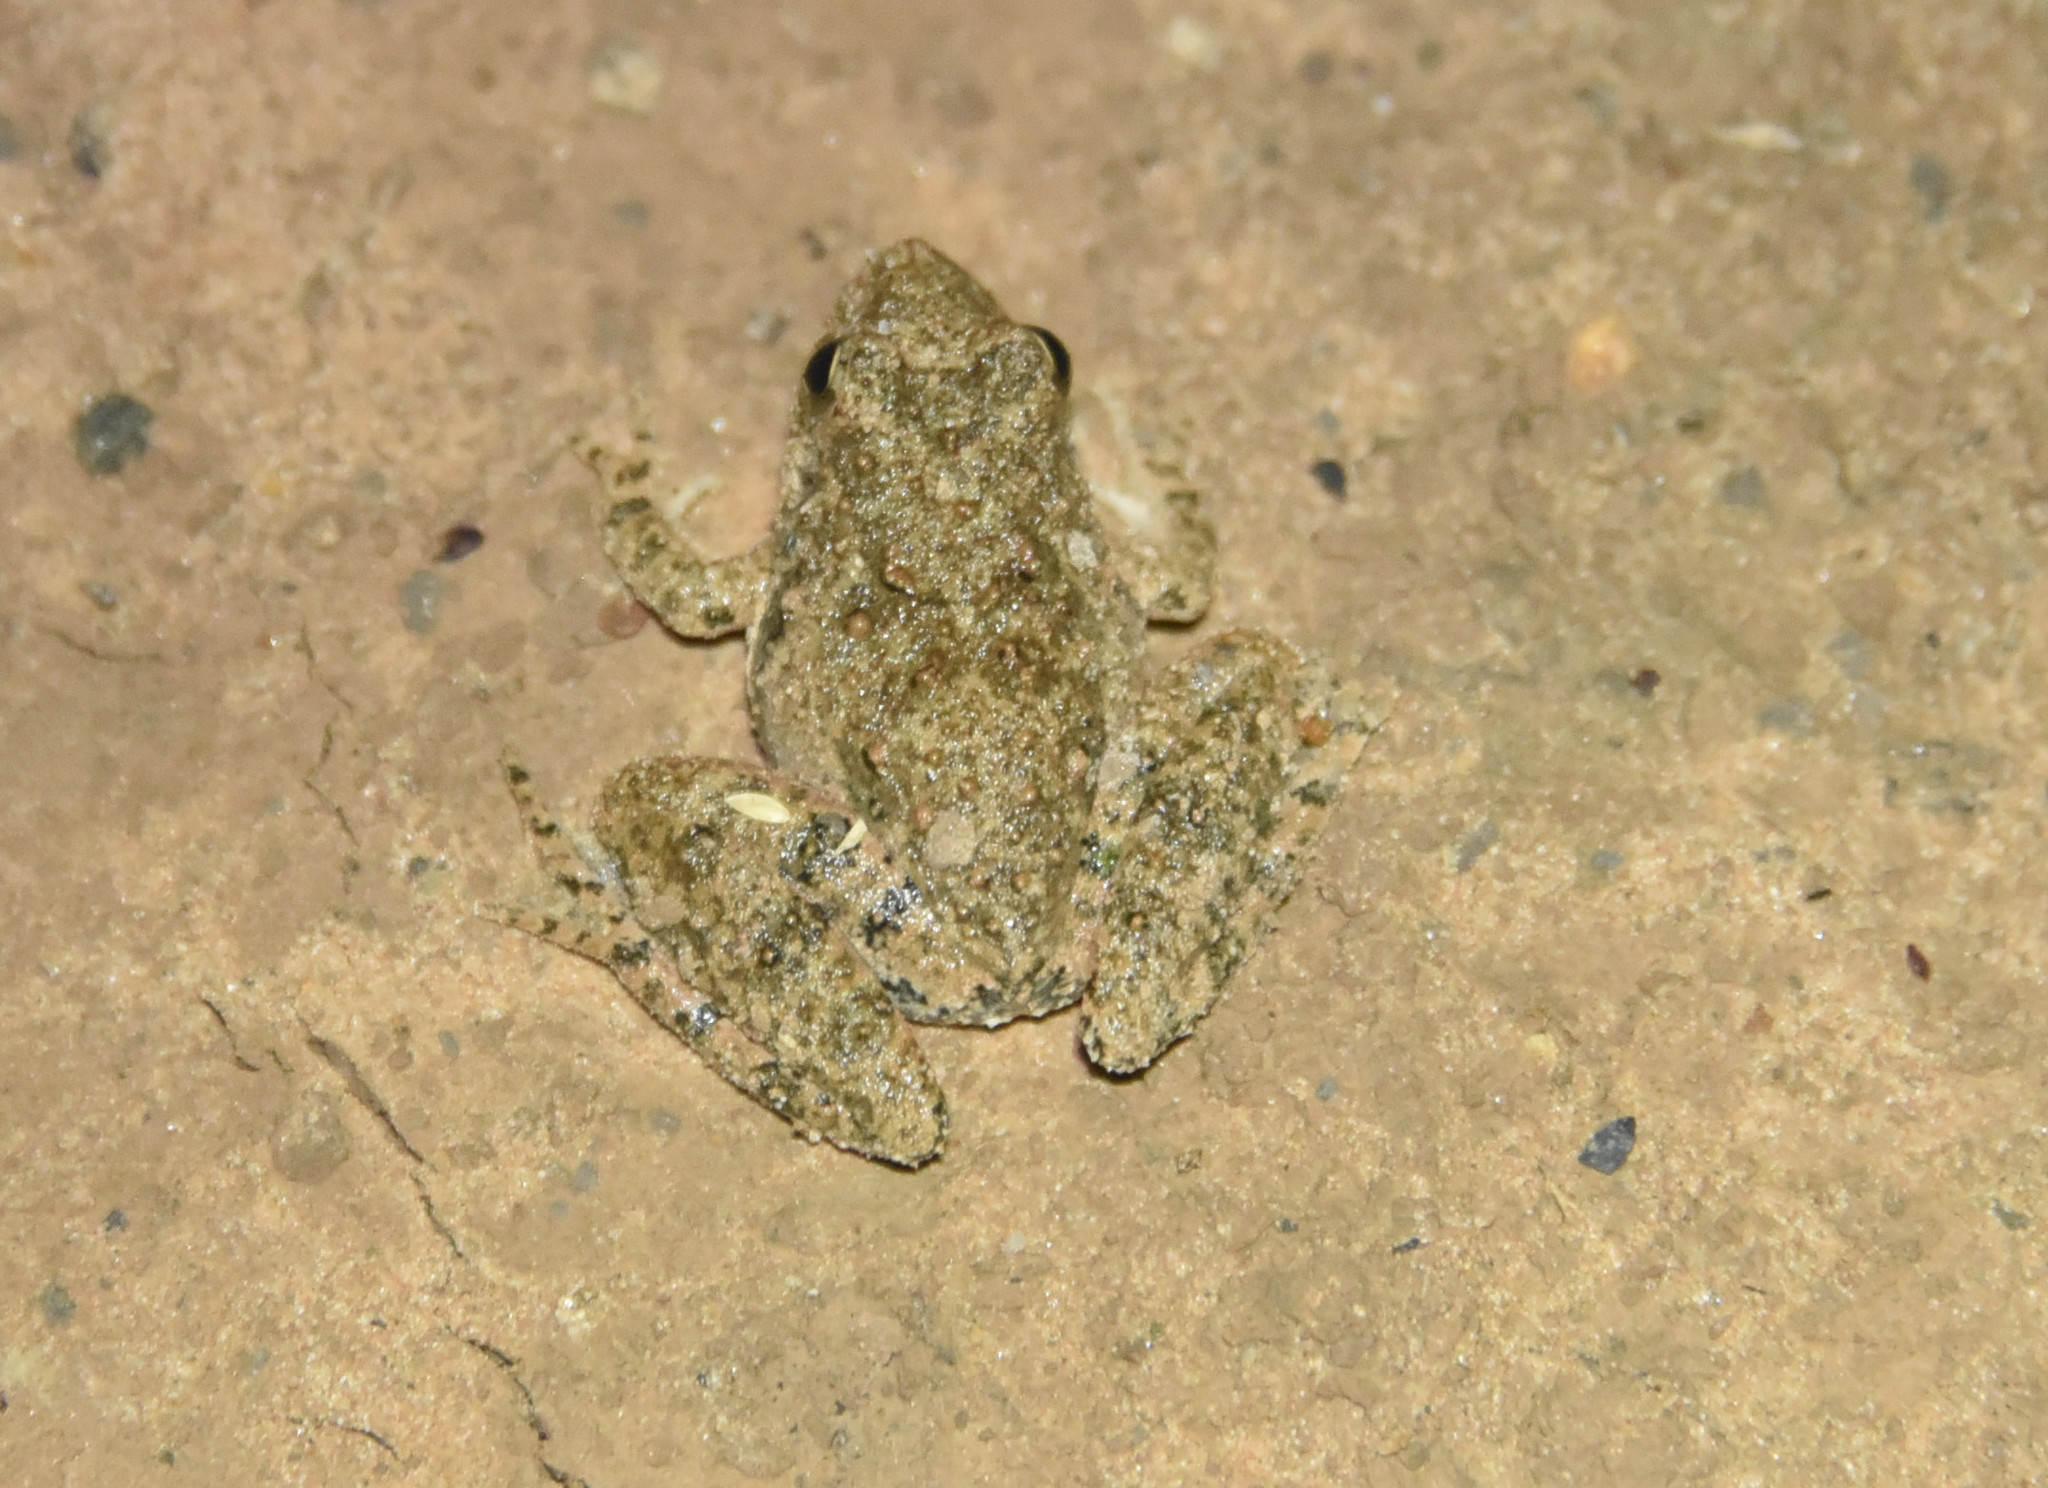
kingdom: Animalia
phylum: Chordata
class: Amphibia
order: Anura
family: Hylidae
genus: Acris
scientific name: Acris blanchardi
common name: Blanchard's cricket frog
